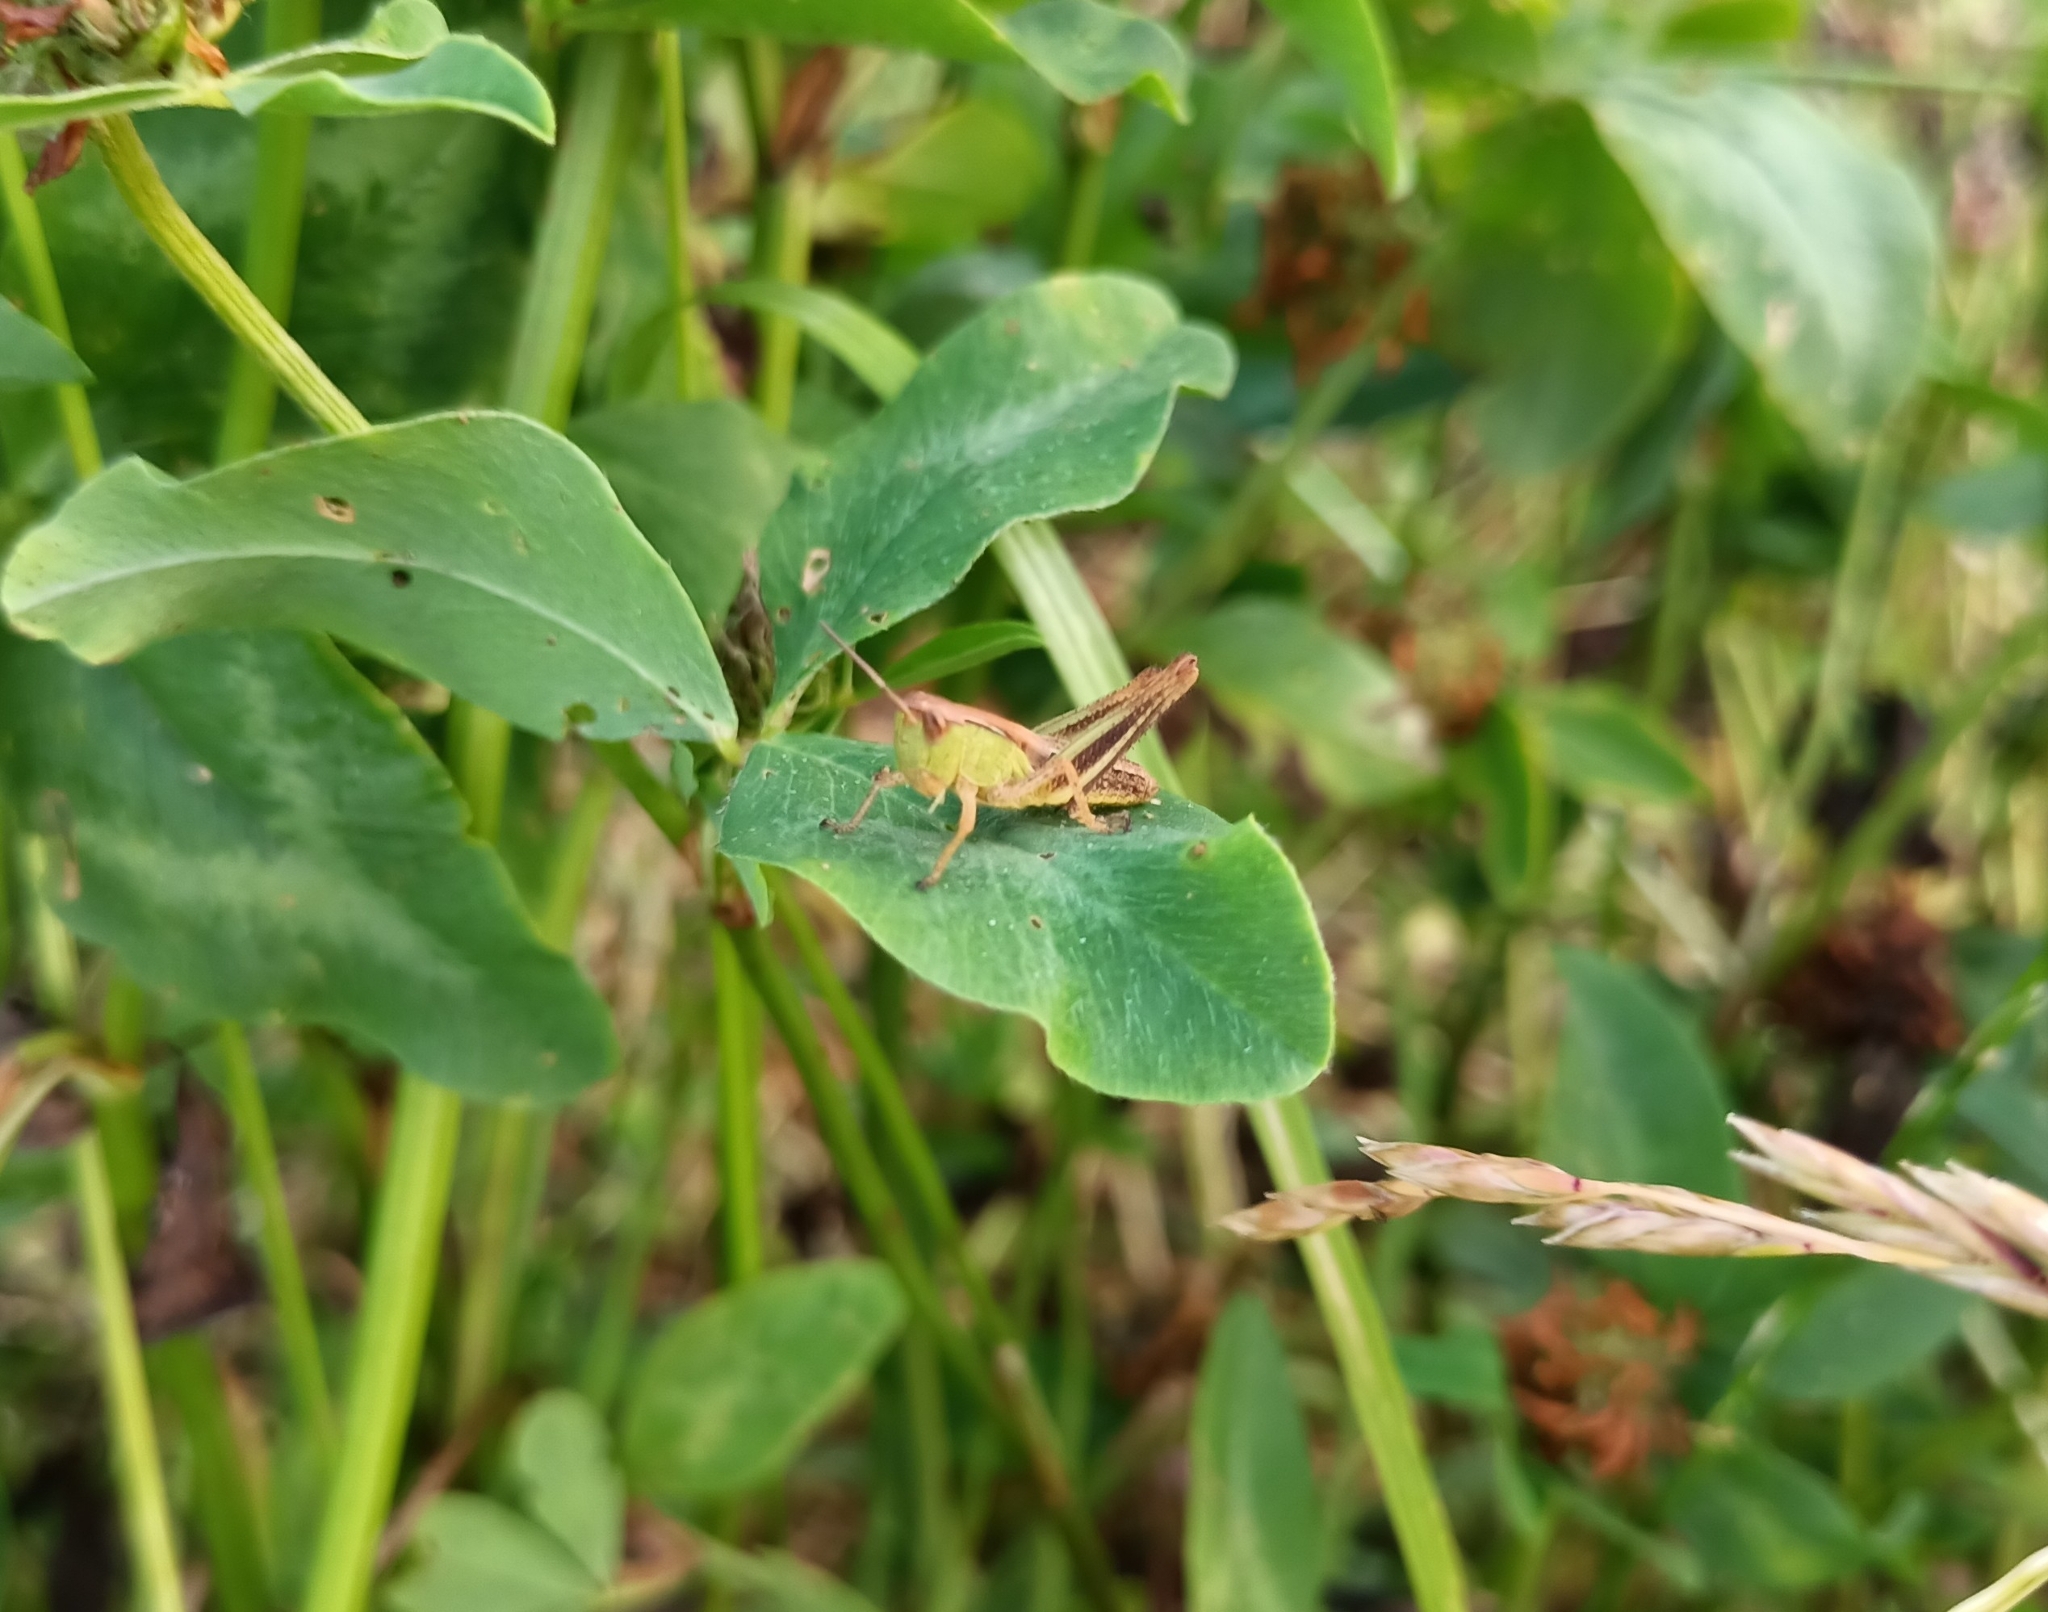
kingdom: Animalia
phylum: Arthropoda
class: Insecta
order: Orthoptera
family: Acrididae
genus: Pseudochorthippus
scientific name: Pseudochorthippus parallelus
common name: Meadow grasshopper
